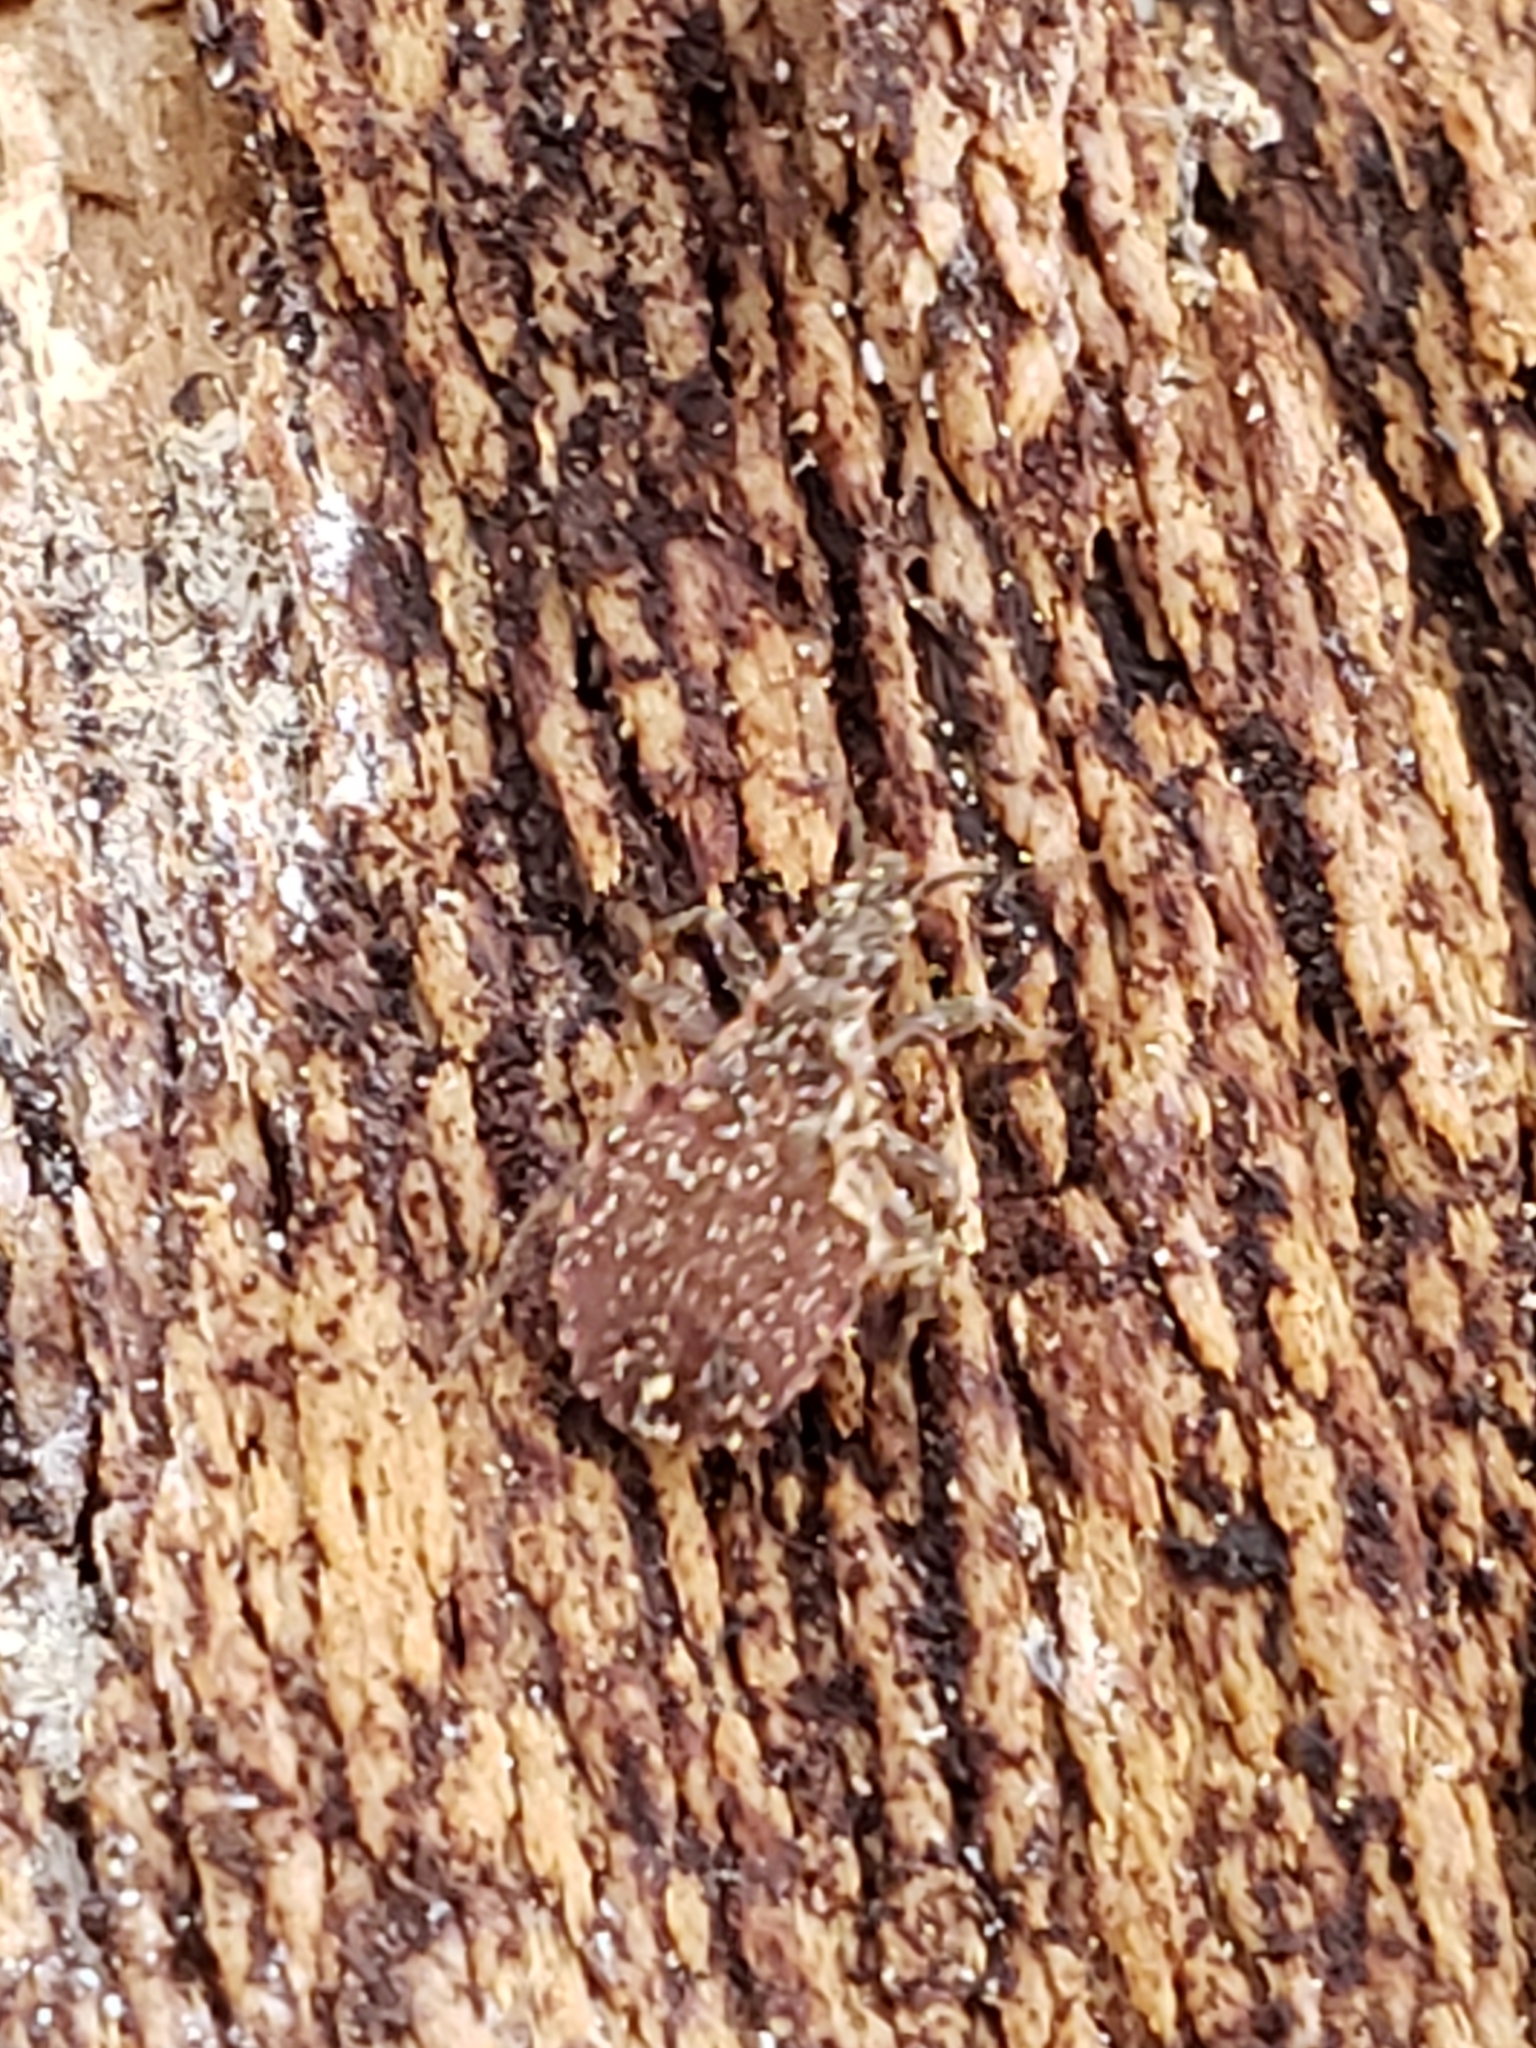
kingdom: Animalia
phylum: Arthropoda
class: Insecta
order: Hemiptera
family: Reduviidae
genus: Triatoma
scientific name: Triatoma sanguisuga
